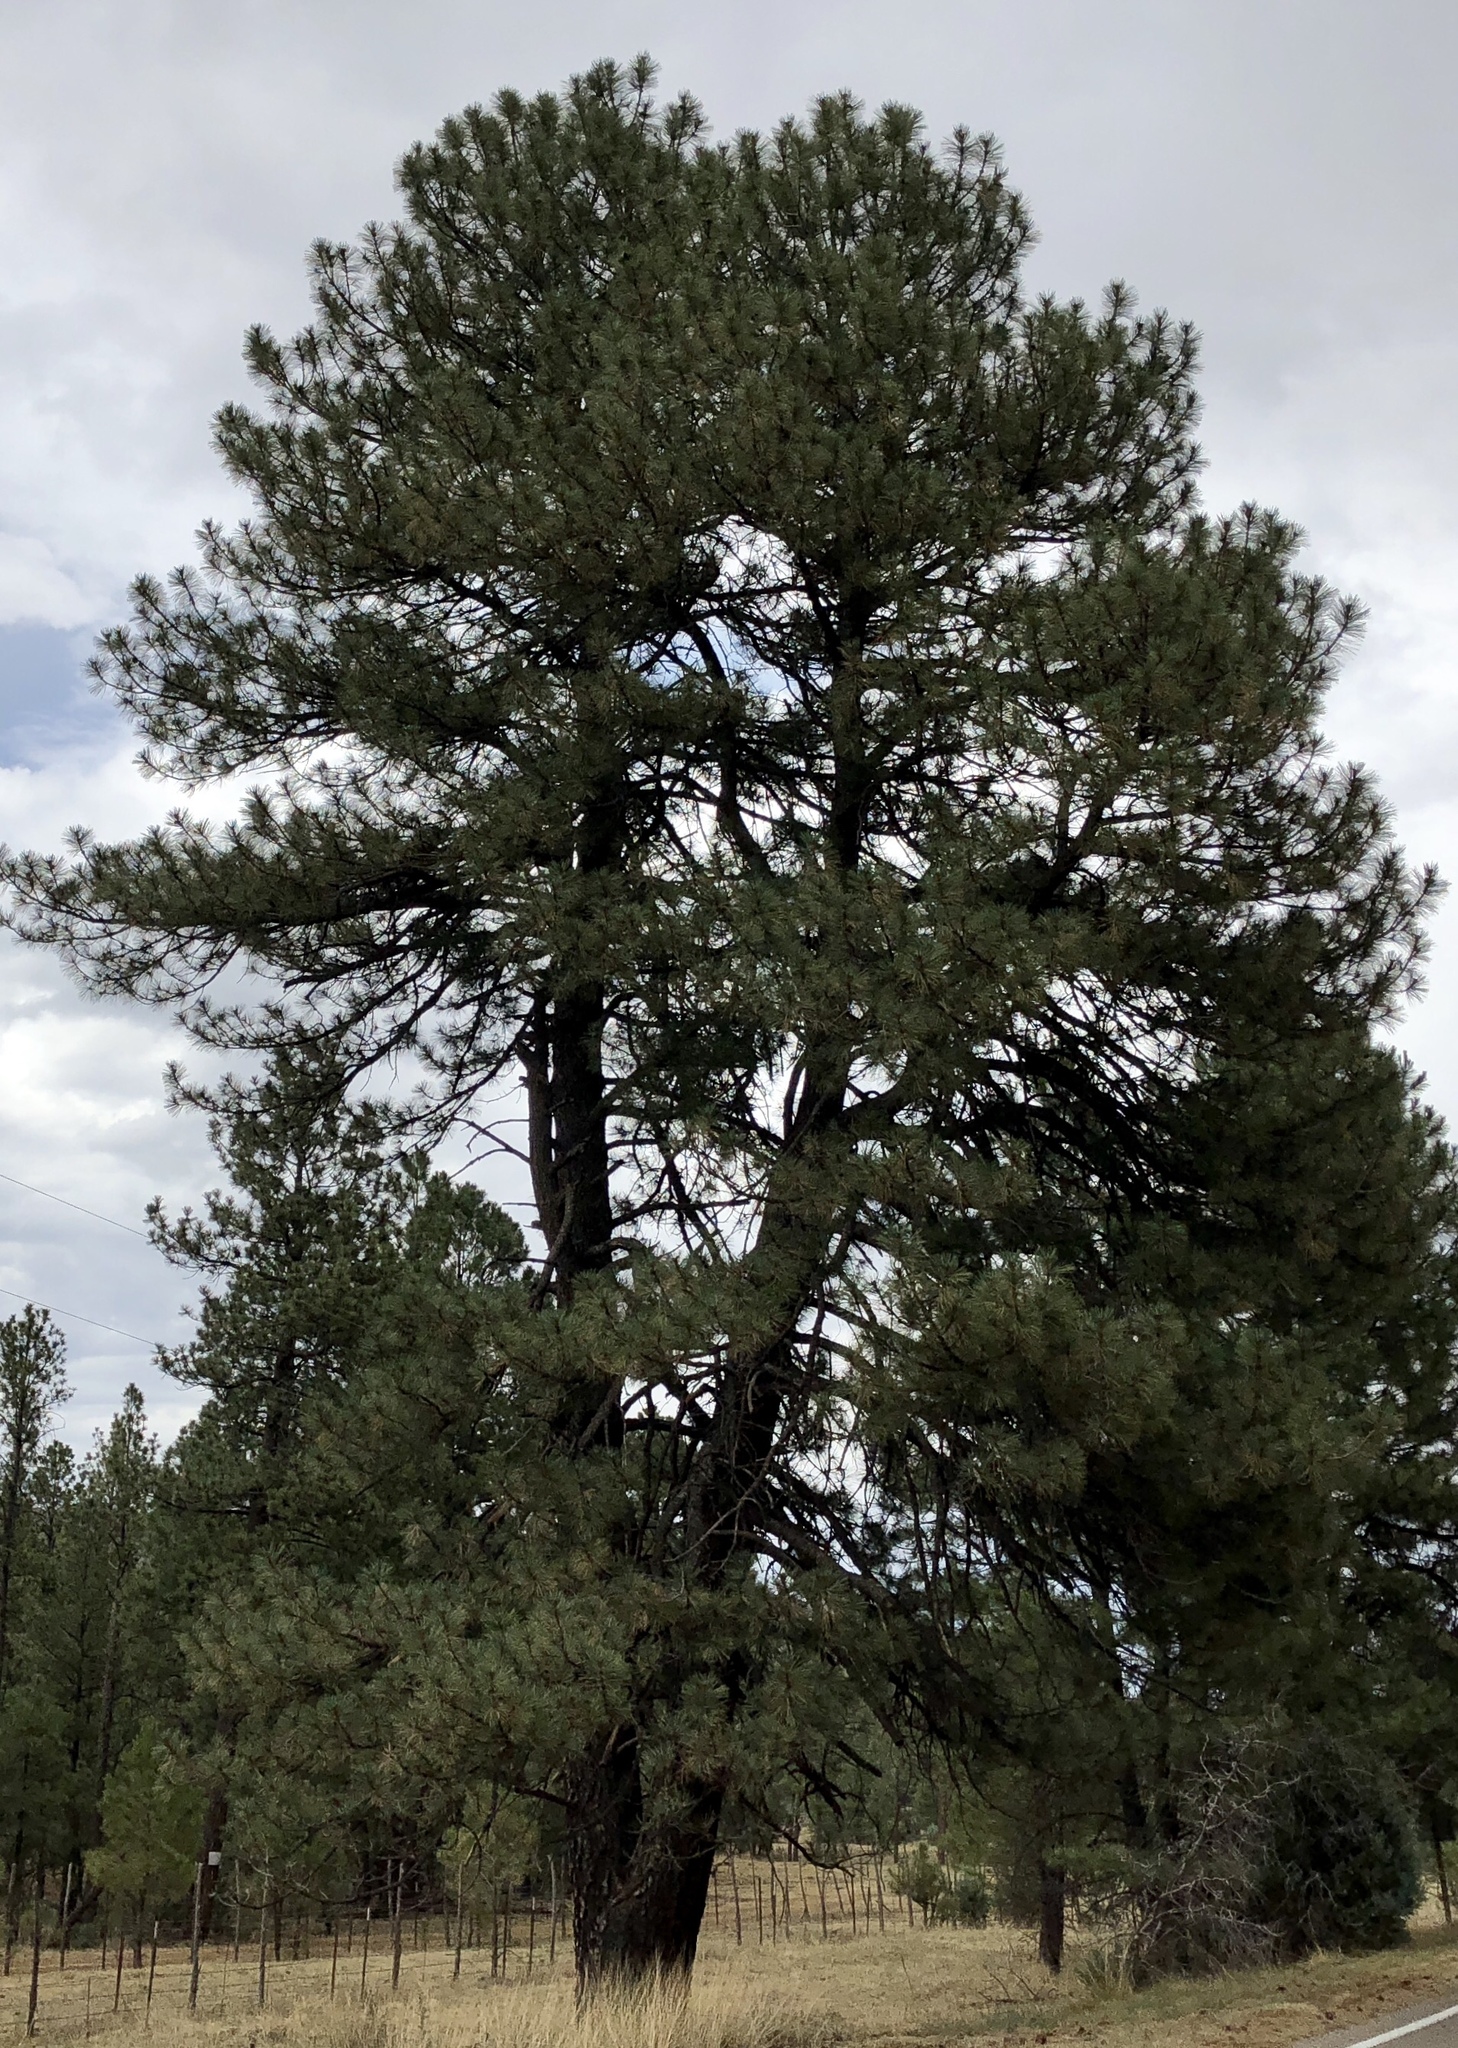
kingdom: Plantae
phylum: Tracheophyta
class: Pinopsida
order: Pinales
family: Pinaceae
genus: Pinus
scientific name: Pinus ponderosa
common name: Western yellow-pine
